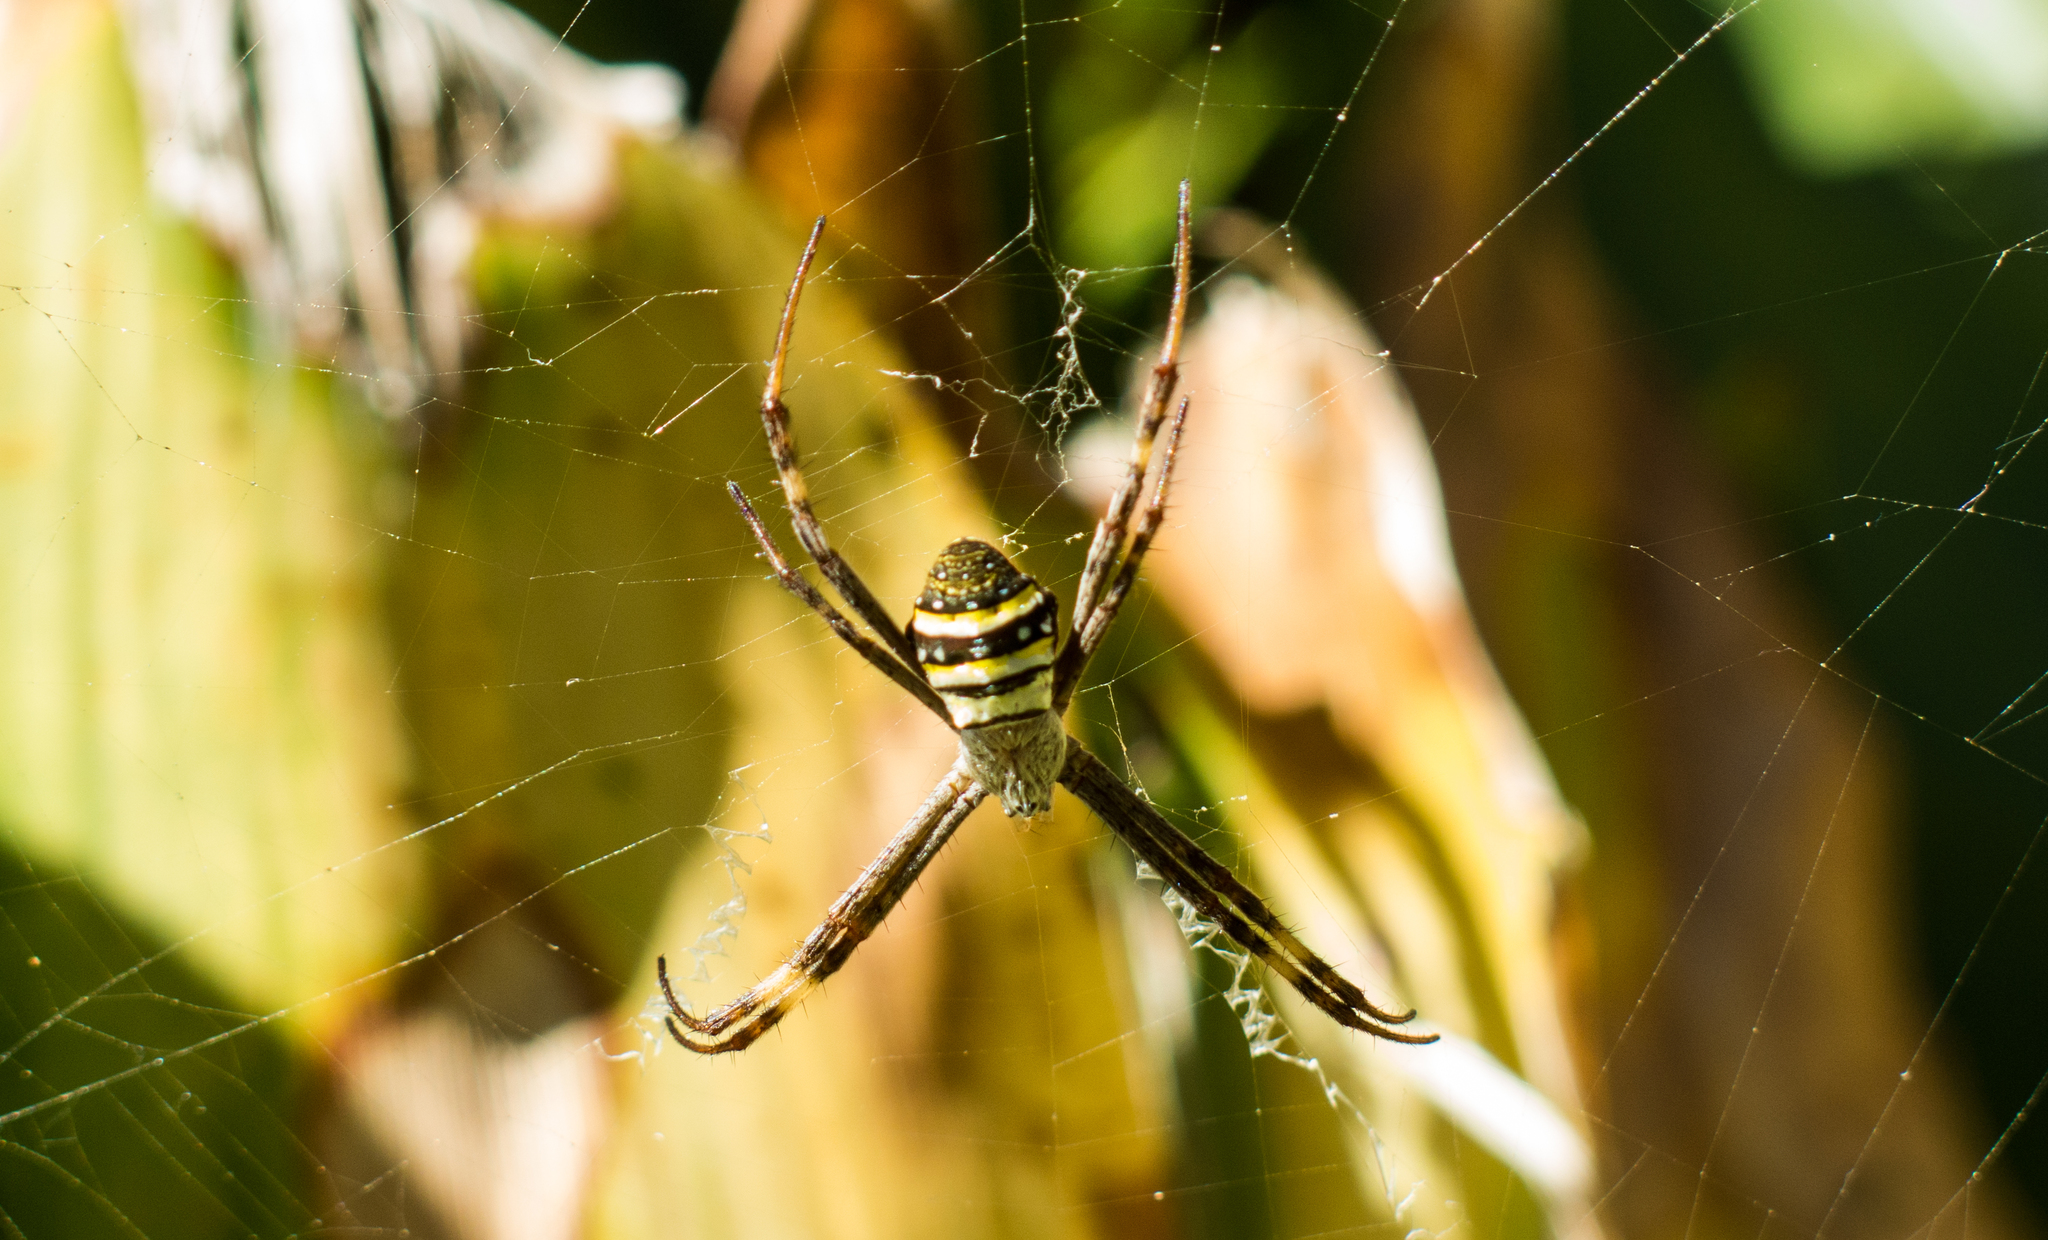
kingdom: Animalia
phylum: Arthropoda
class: Arachnida
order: Araneae
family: Araneidae
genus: Argiope
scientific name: Argiope keyserlingi
